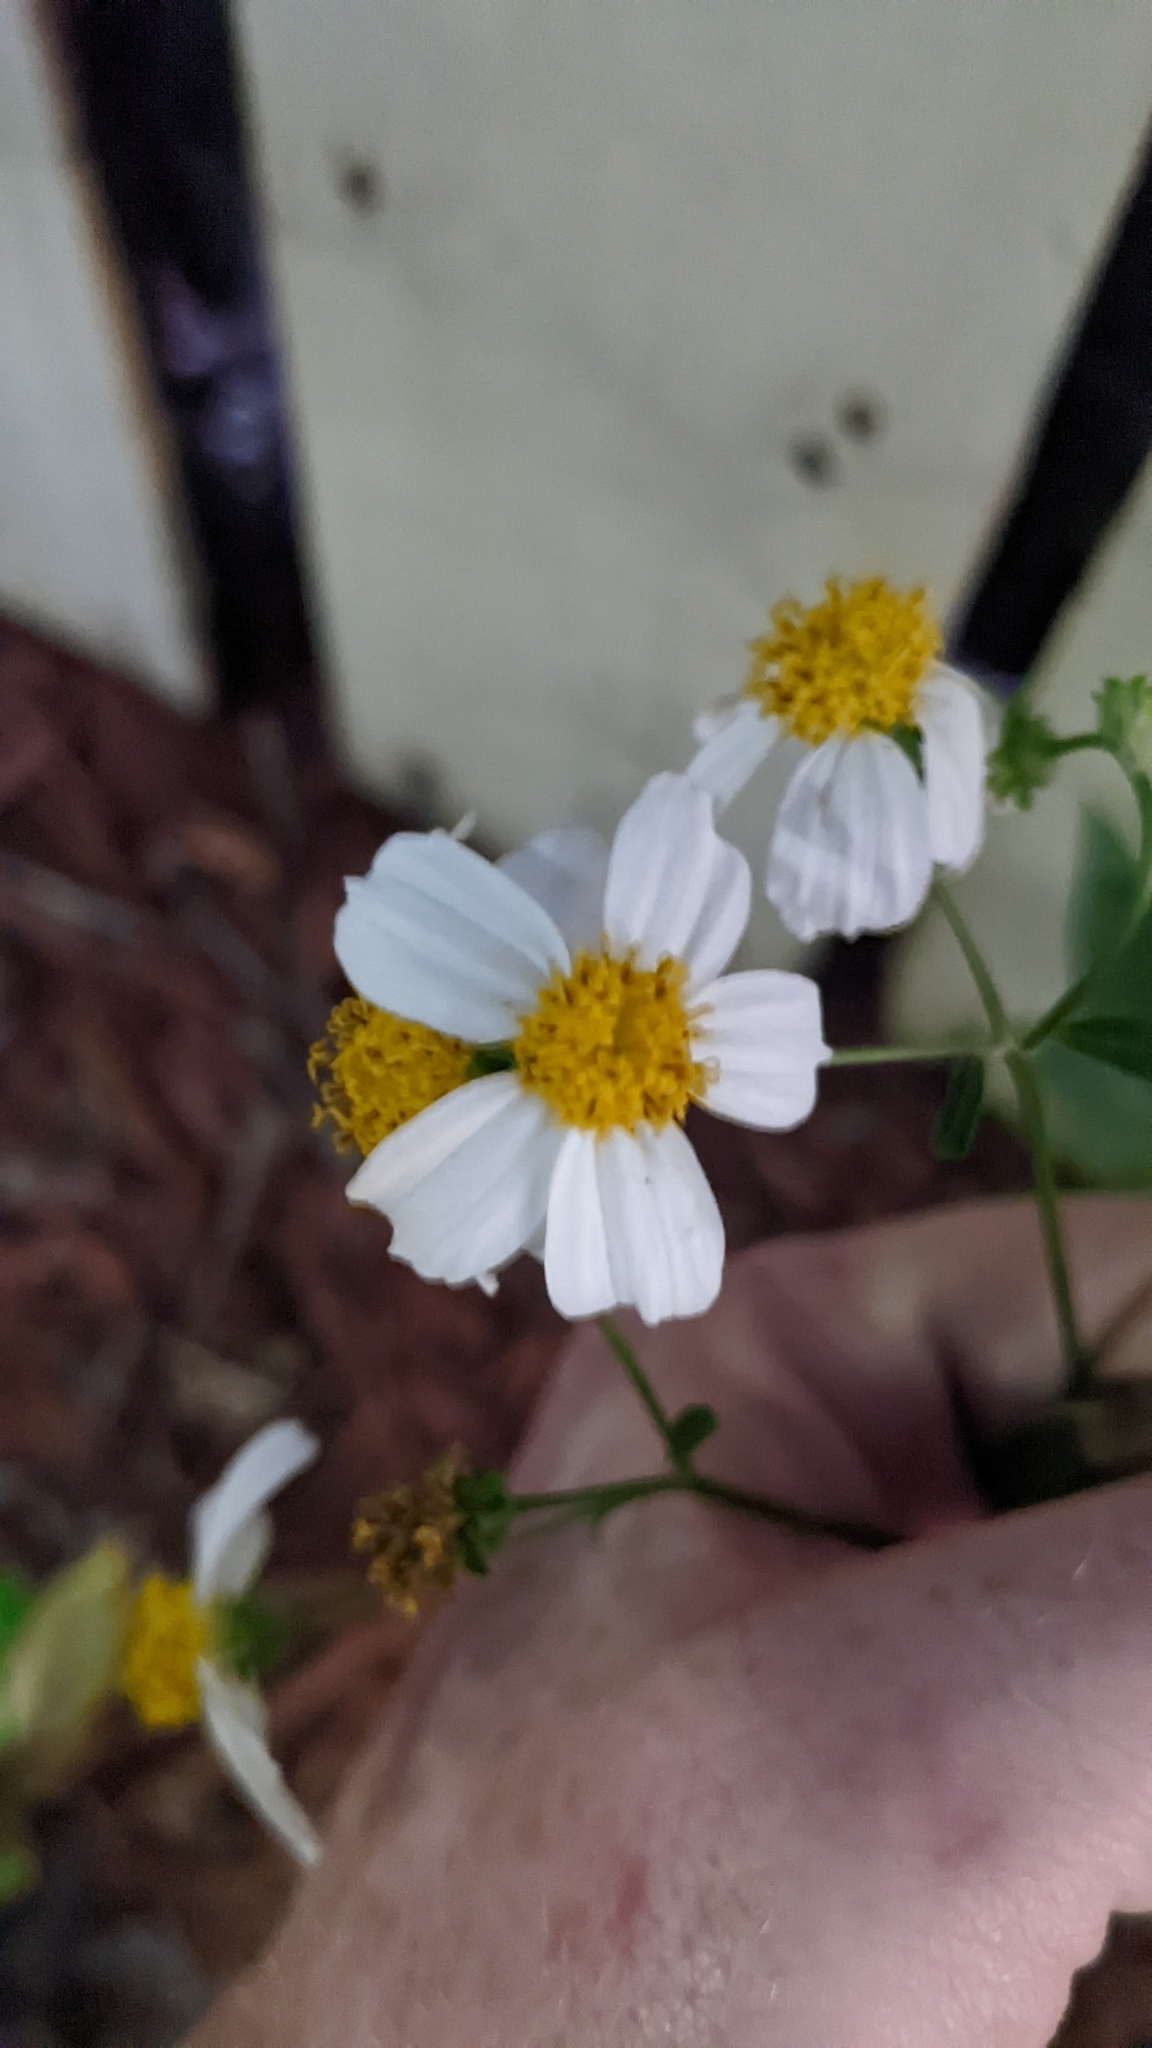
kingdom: Plantae
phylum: Tracheophyta
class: Magnoliopsida
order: Asterales
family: Asteraceae
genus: Bidens
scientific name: Bidens alba
